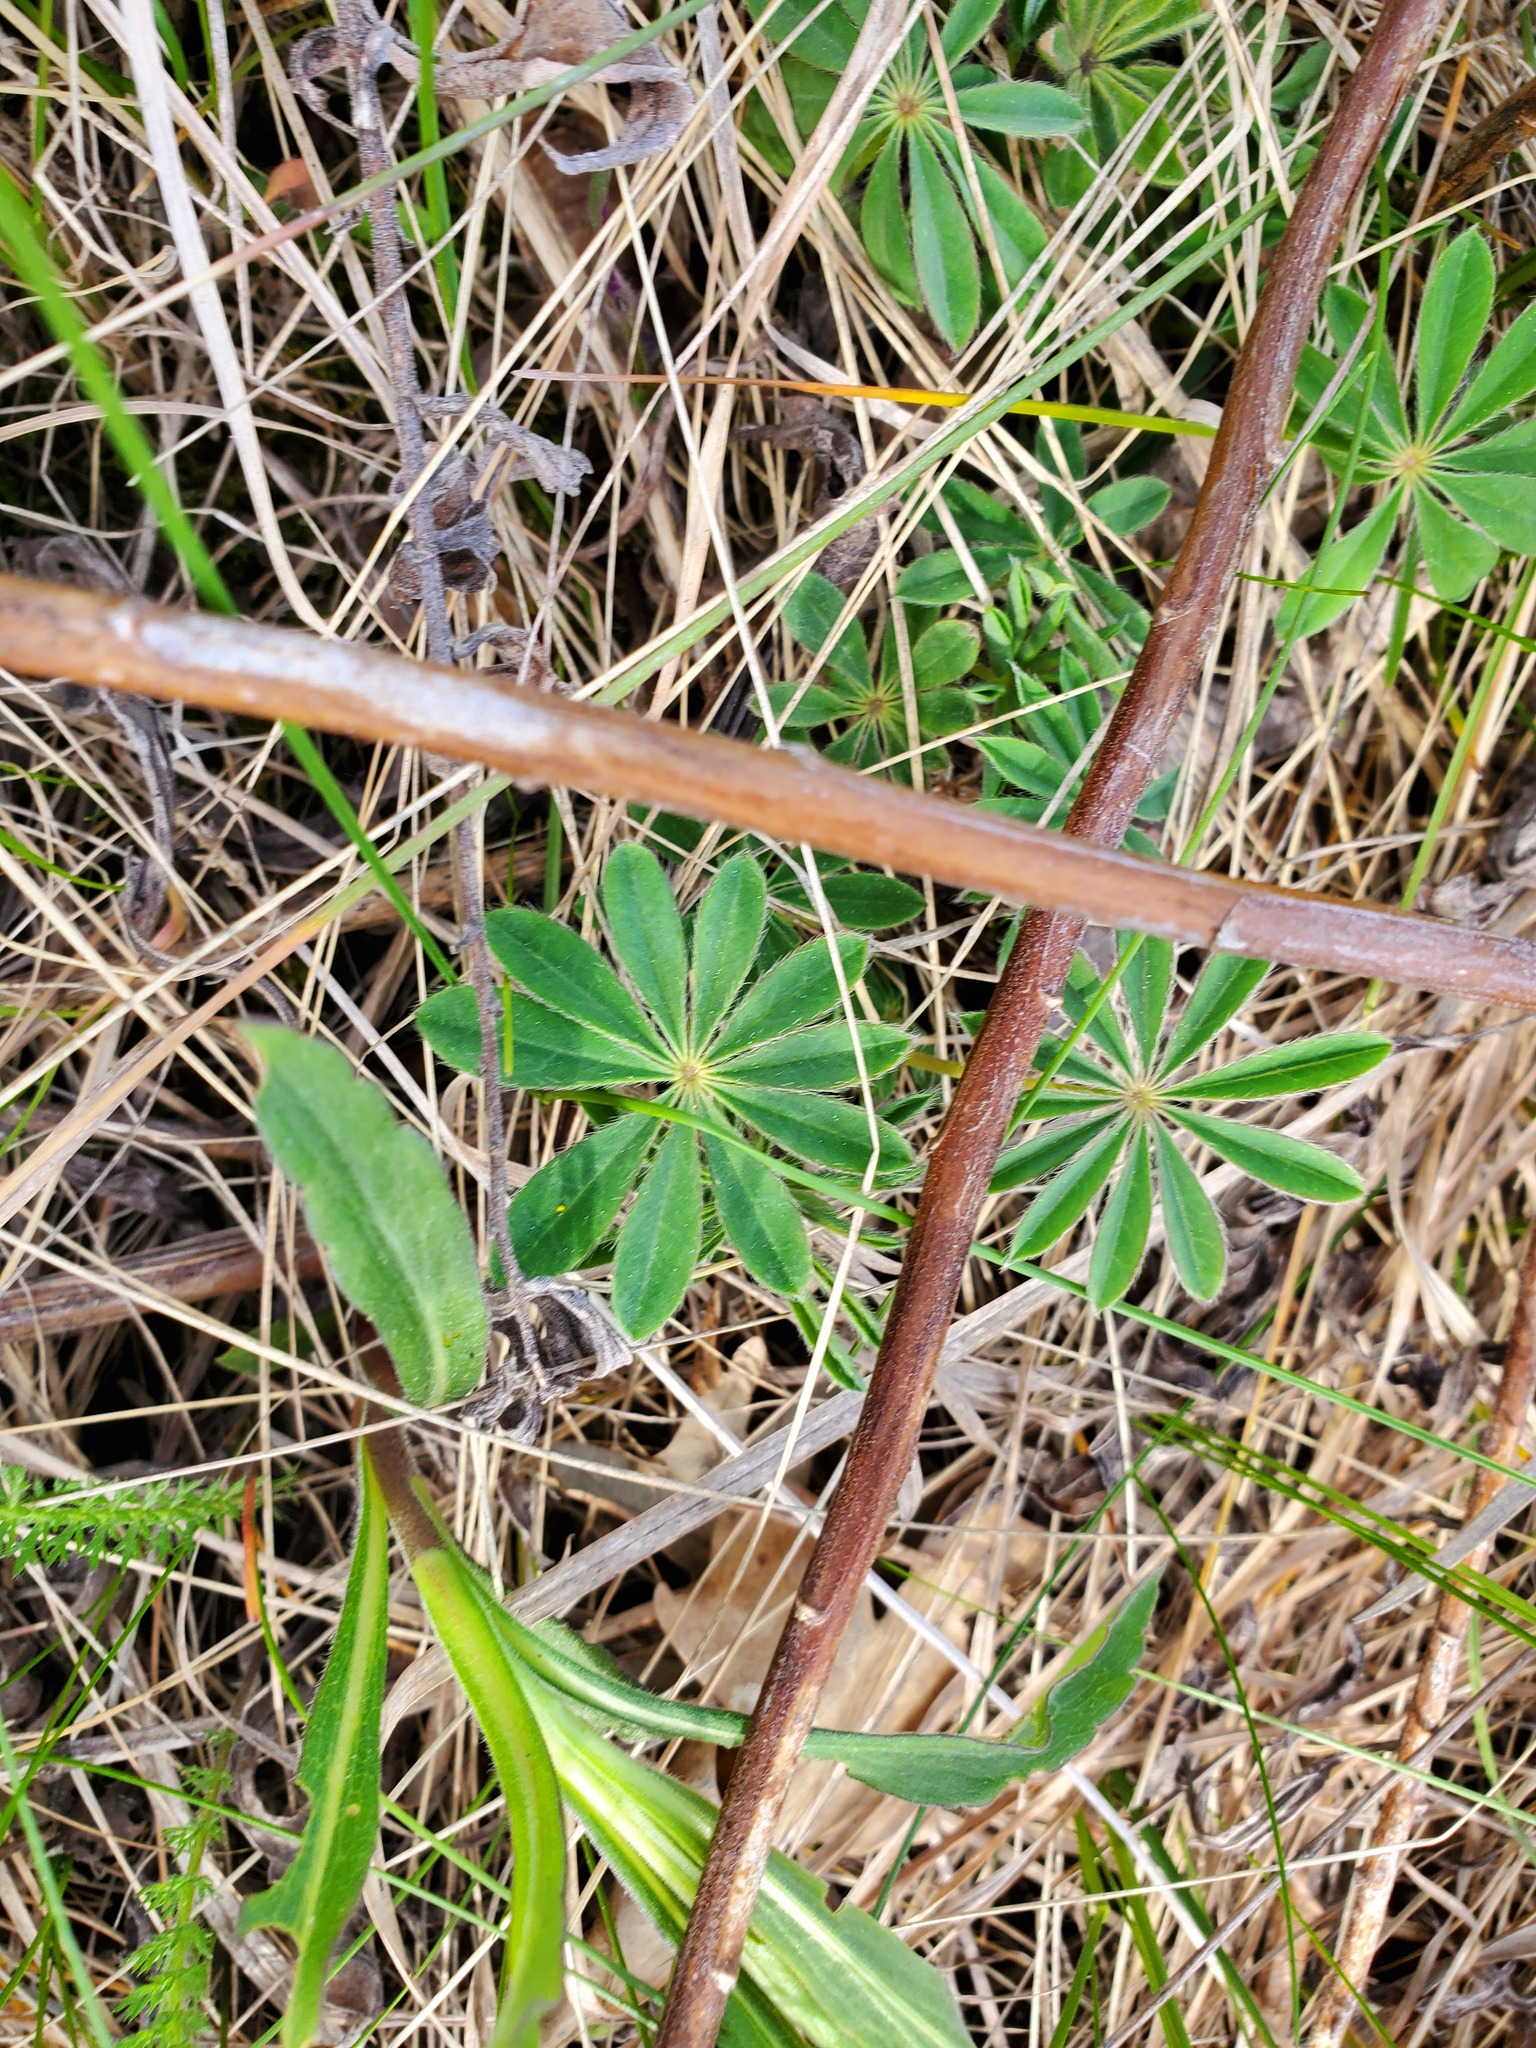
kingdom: Plantae
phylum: Tracheophyta
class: Magnoliopsida
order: Fabales
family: Fabaceae
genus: Lupinus
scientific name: Lupinus perennis
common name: Sundial lupine
